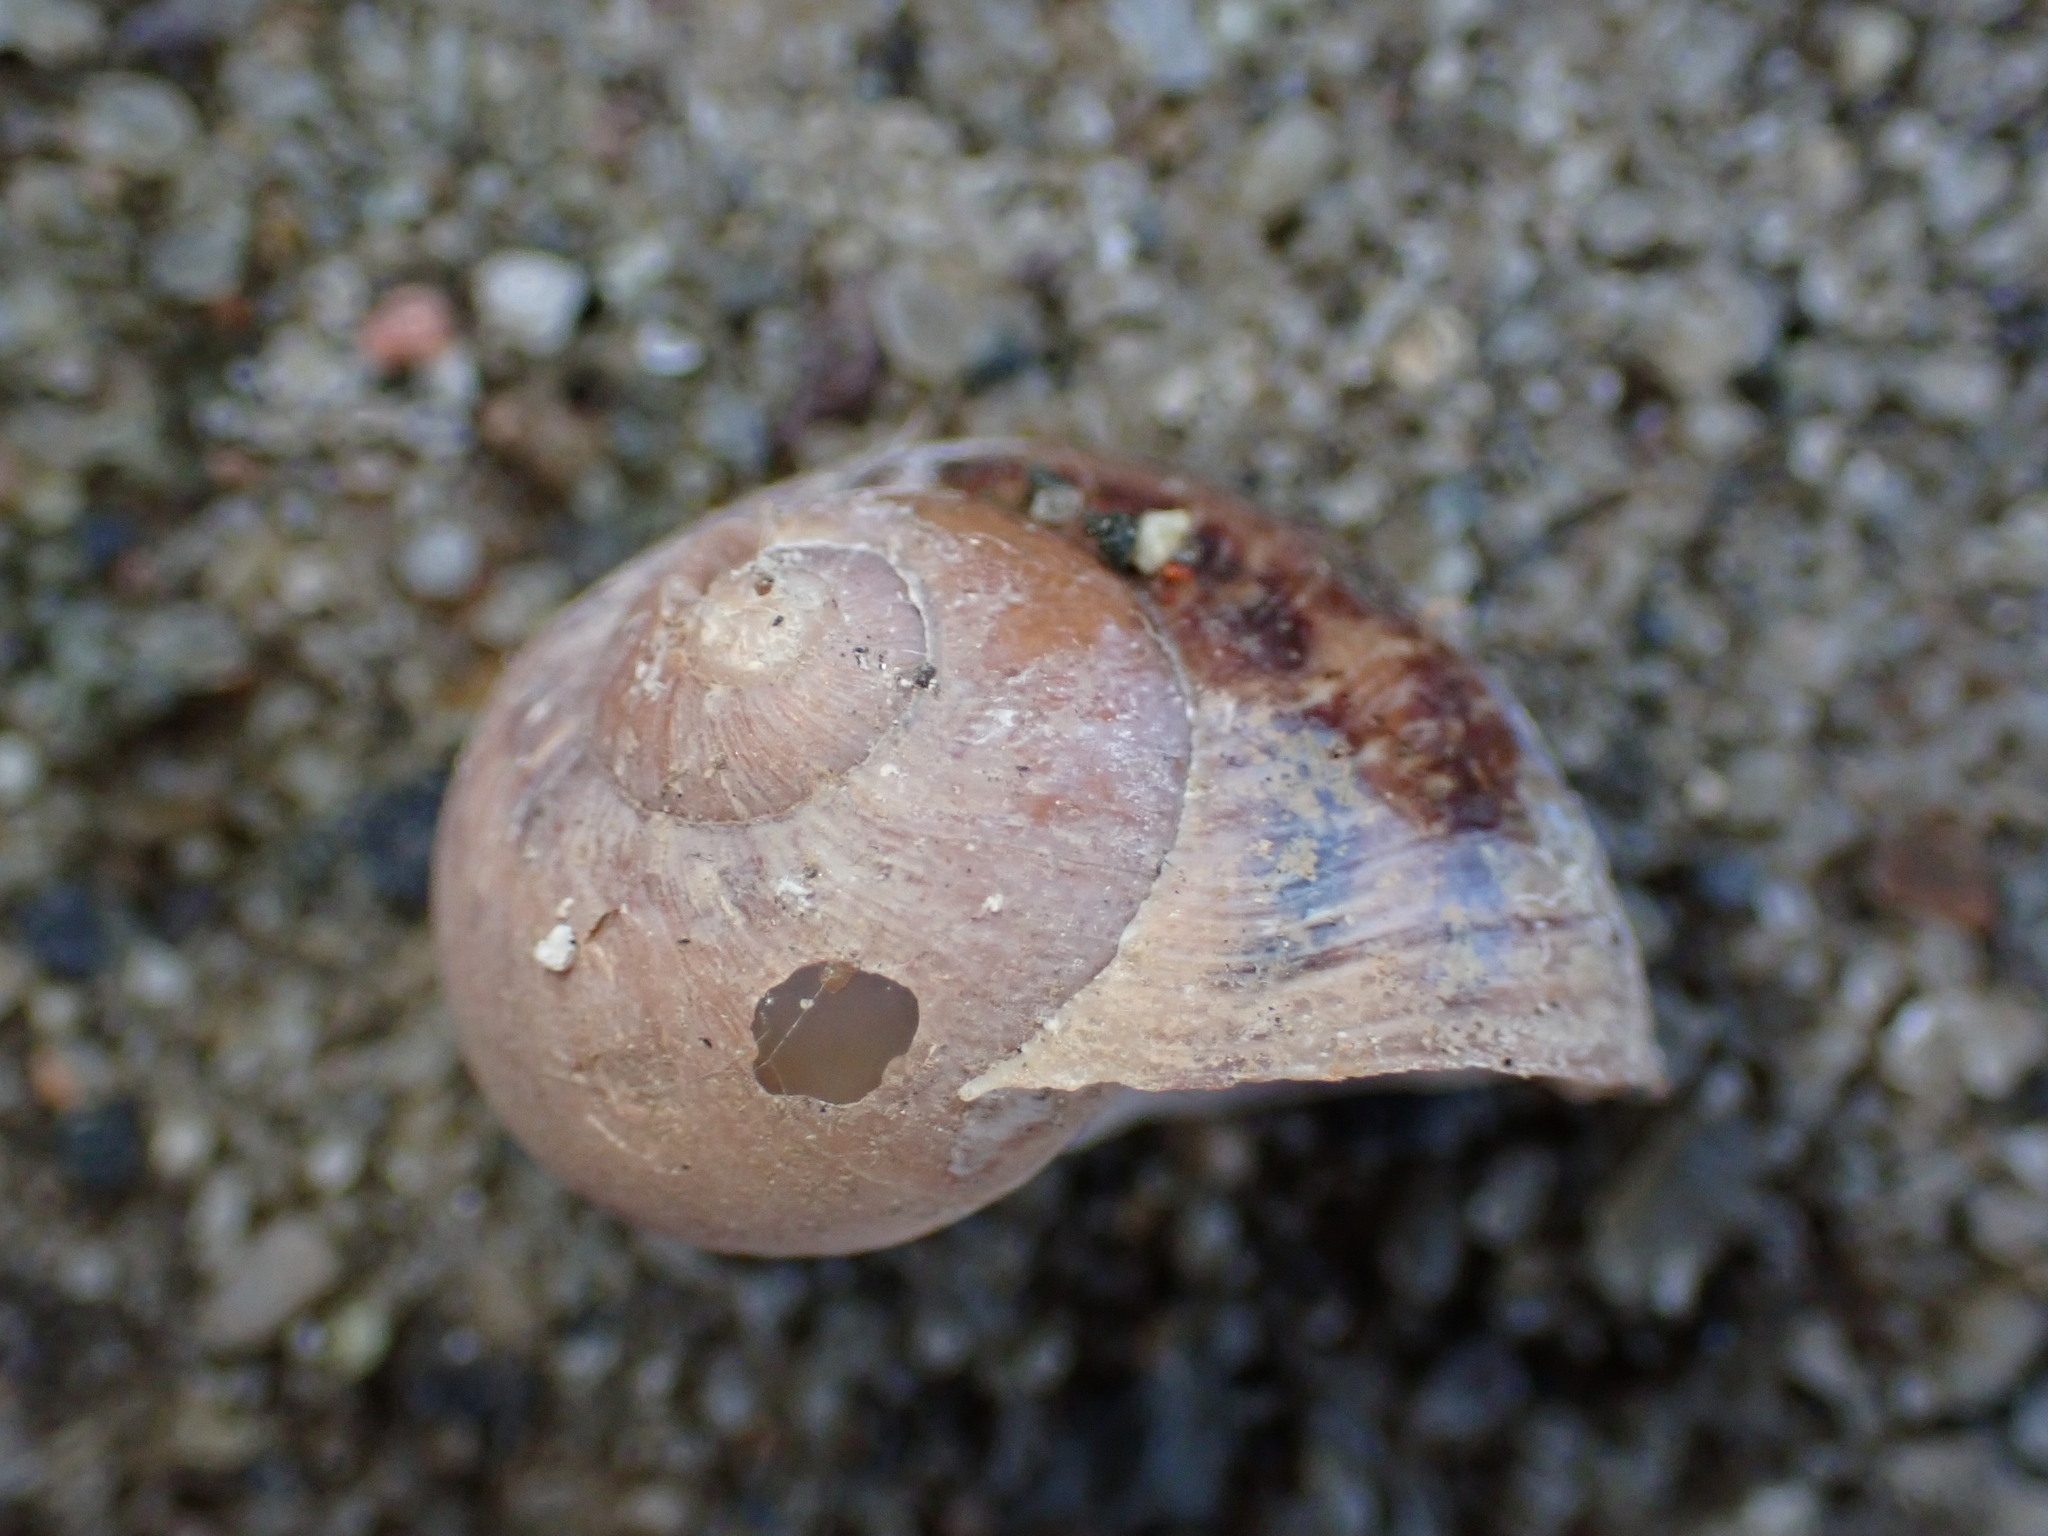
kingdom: Animalia
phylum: Mollusca
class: Gastropoda
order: Stylommatophora
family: Helicidae
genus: Cornu
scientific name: Cornu aspersum
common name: Brown garden snail
